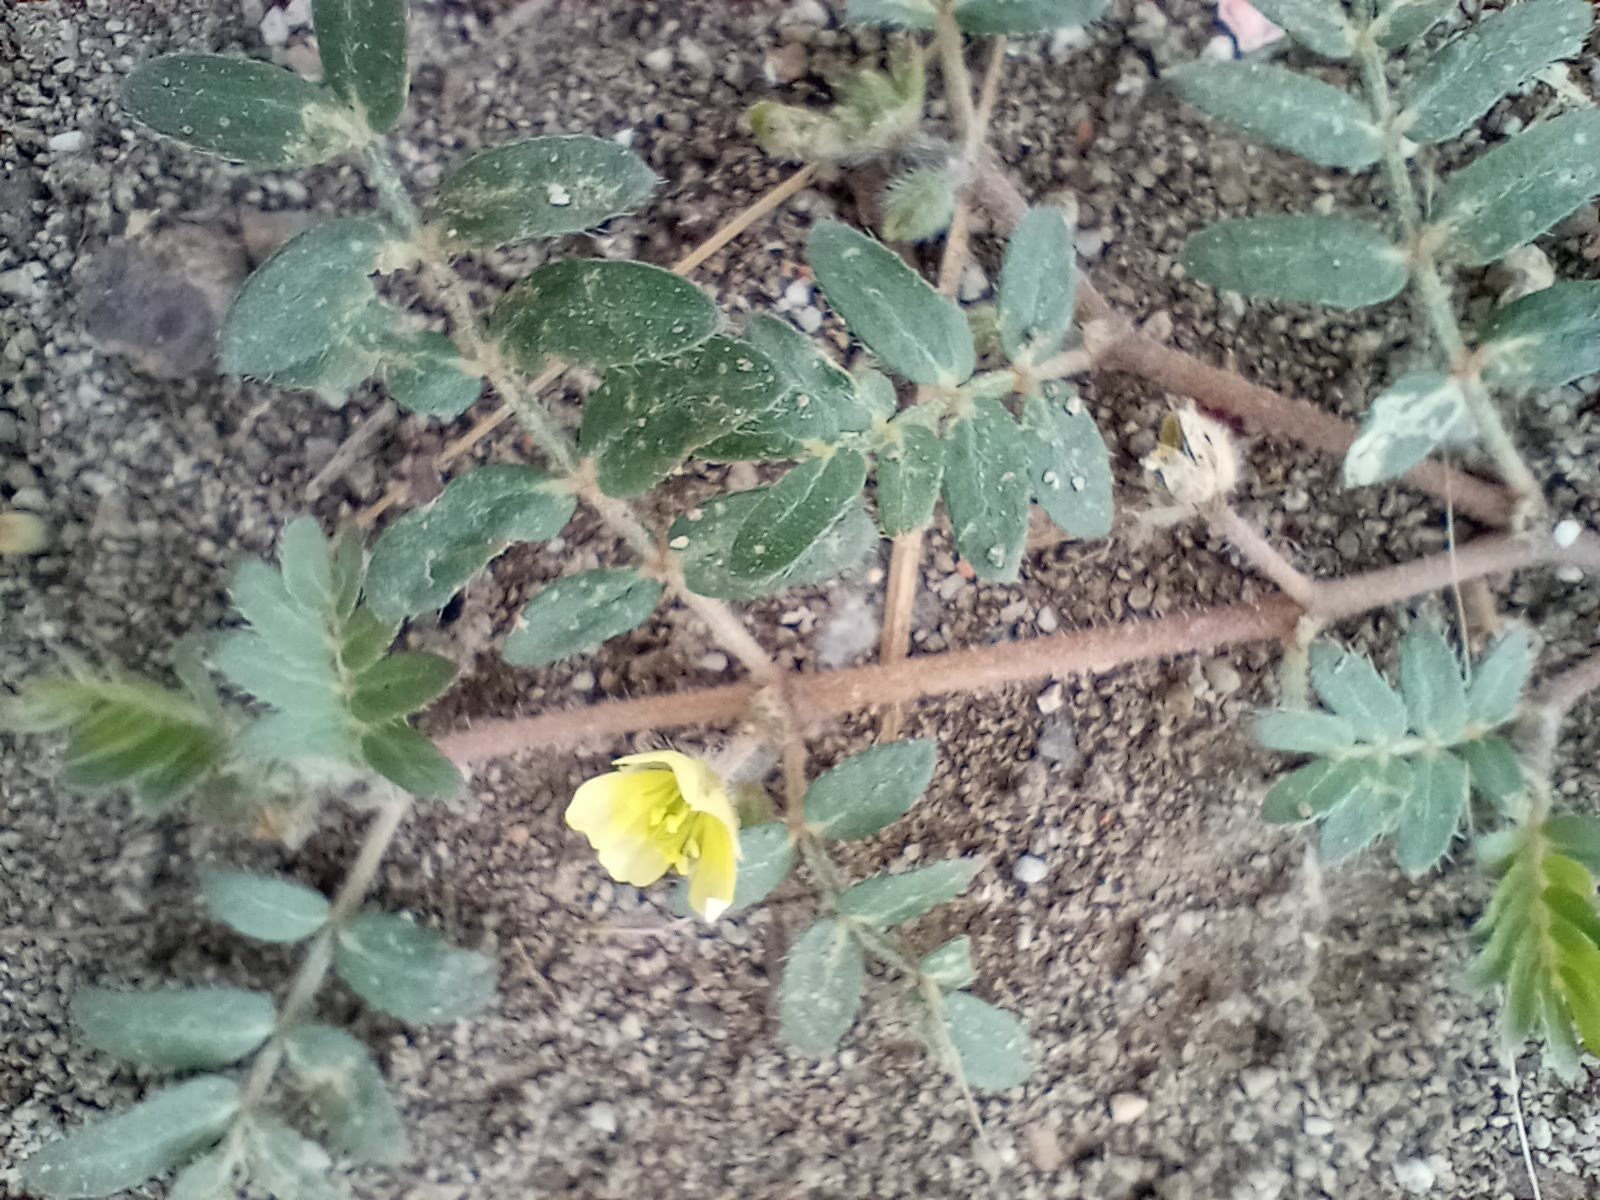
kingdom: Plantae
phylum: Tracheophyta
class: Magnoliopsida
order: Zygophyllales
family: Zygophyllaceae
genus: Tribulus
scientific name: Tribulus terrestris
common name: Puncturevine
